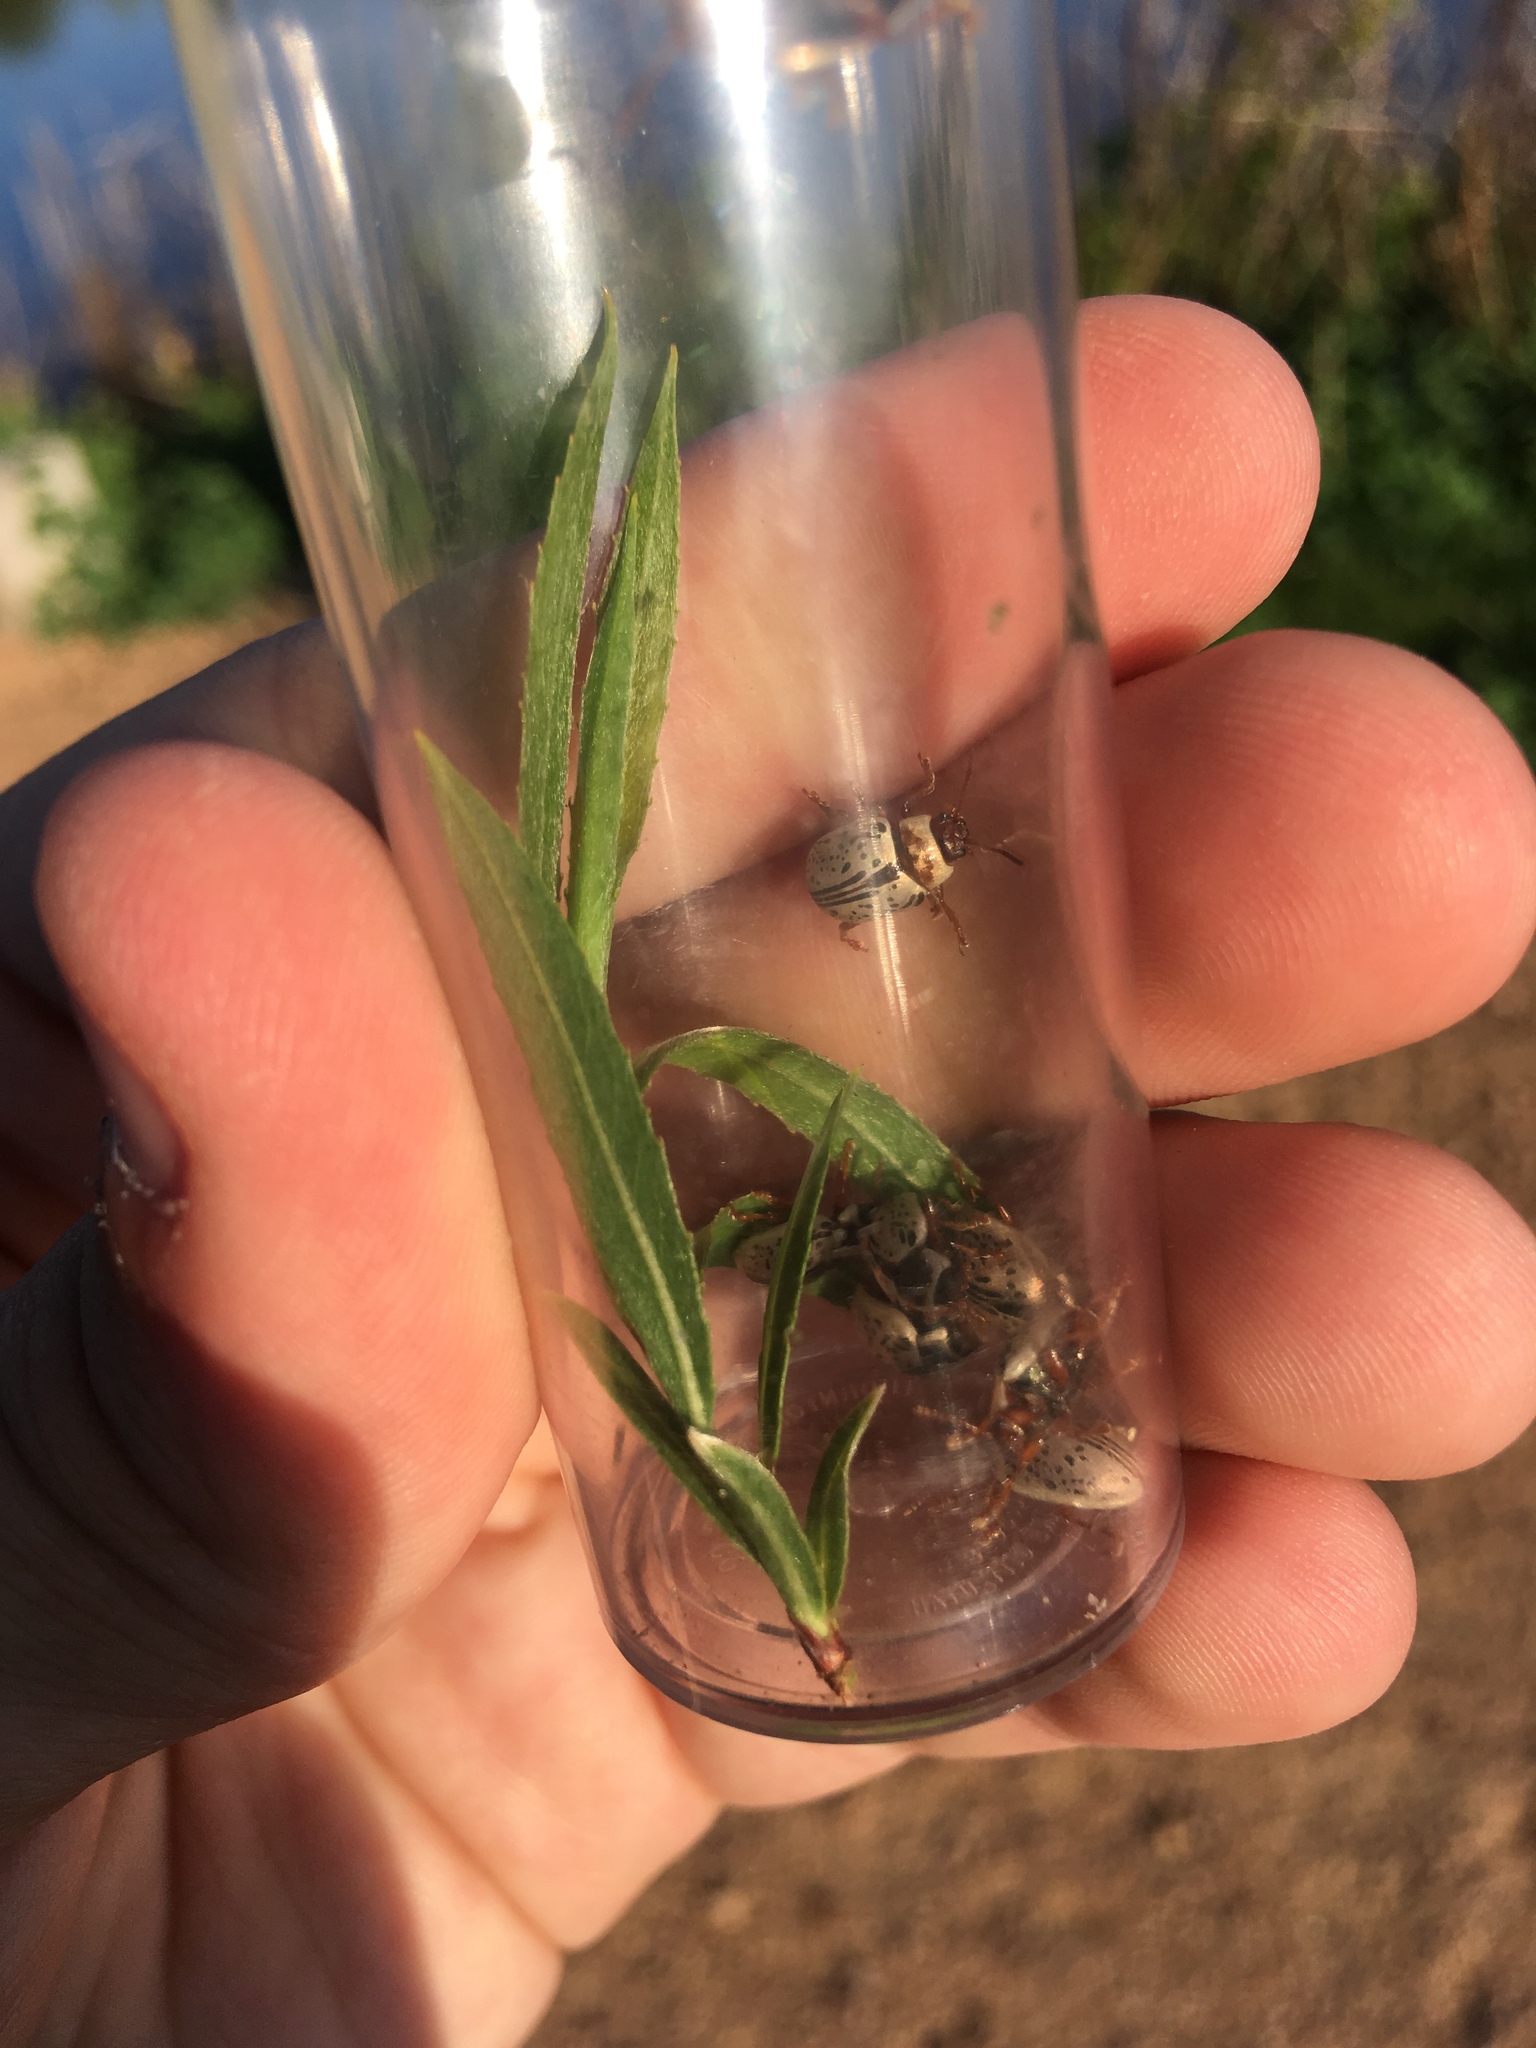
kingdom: Animalia
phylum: Arthropoda
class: Insecta
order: Coleoptera
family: Chrysomelidae
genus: Calligrapha
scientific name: Calligrapha multipunctata
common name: Common willow calligrapher beetle
